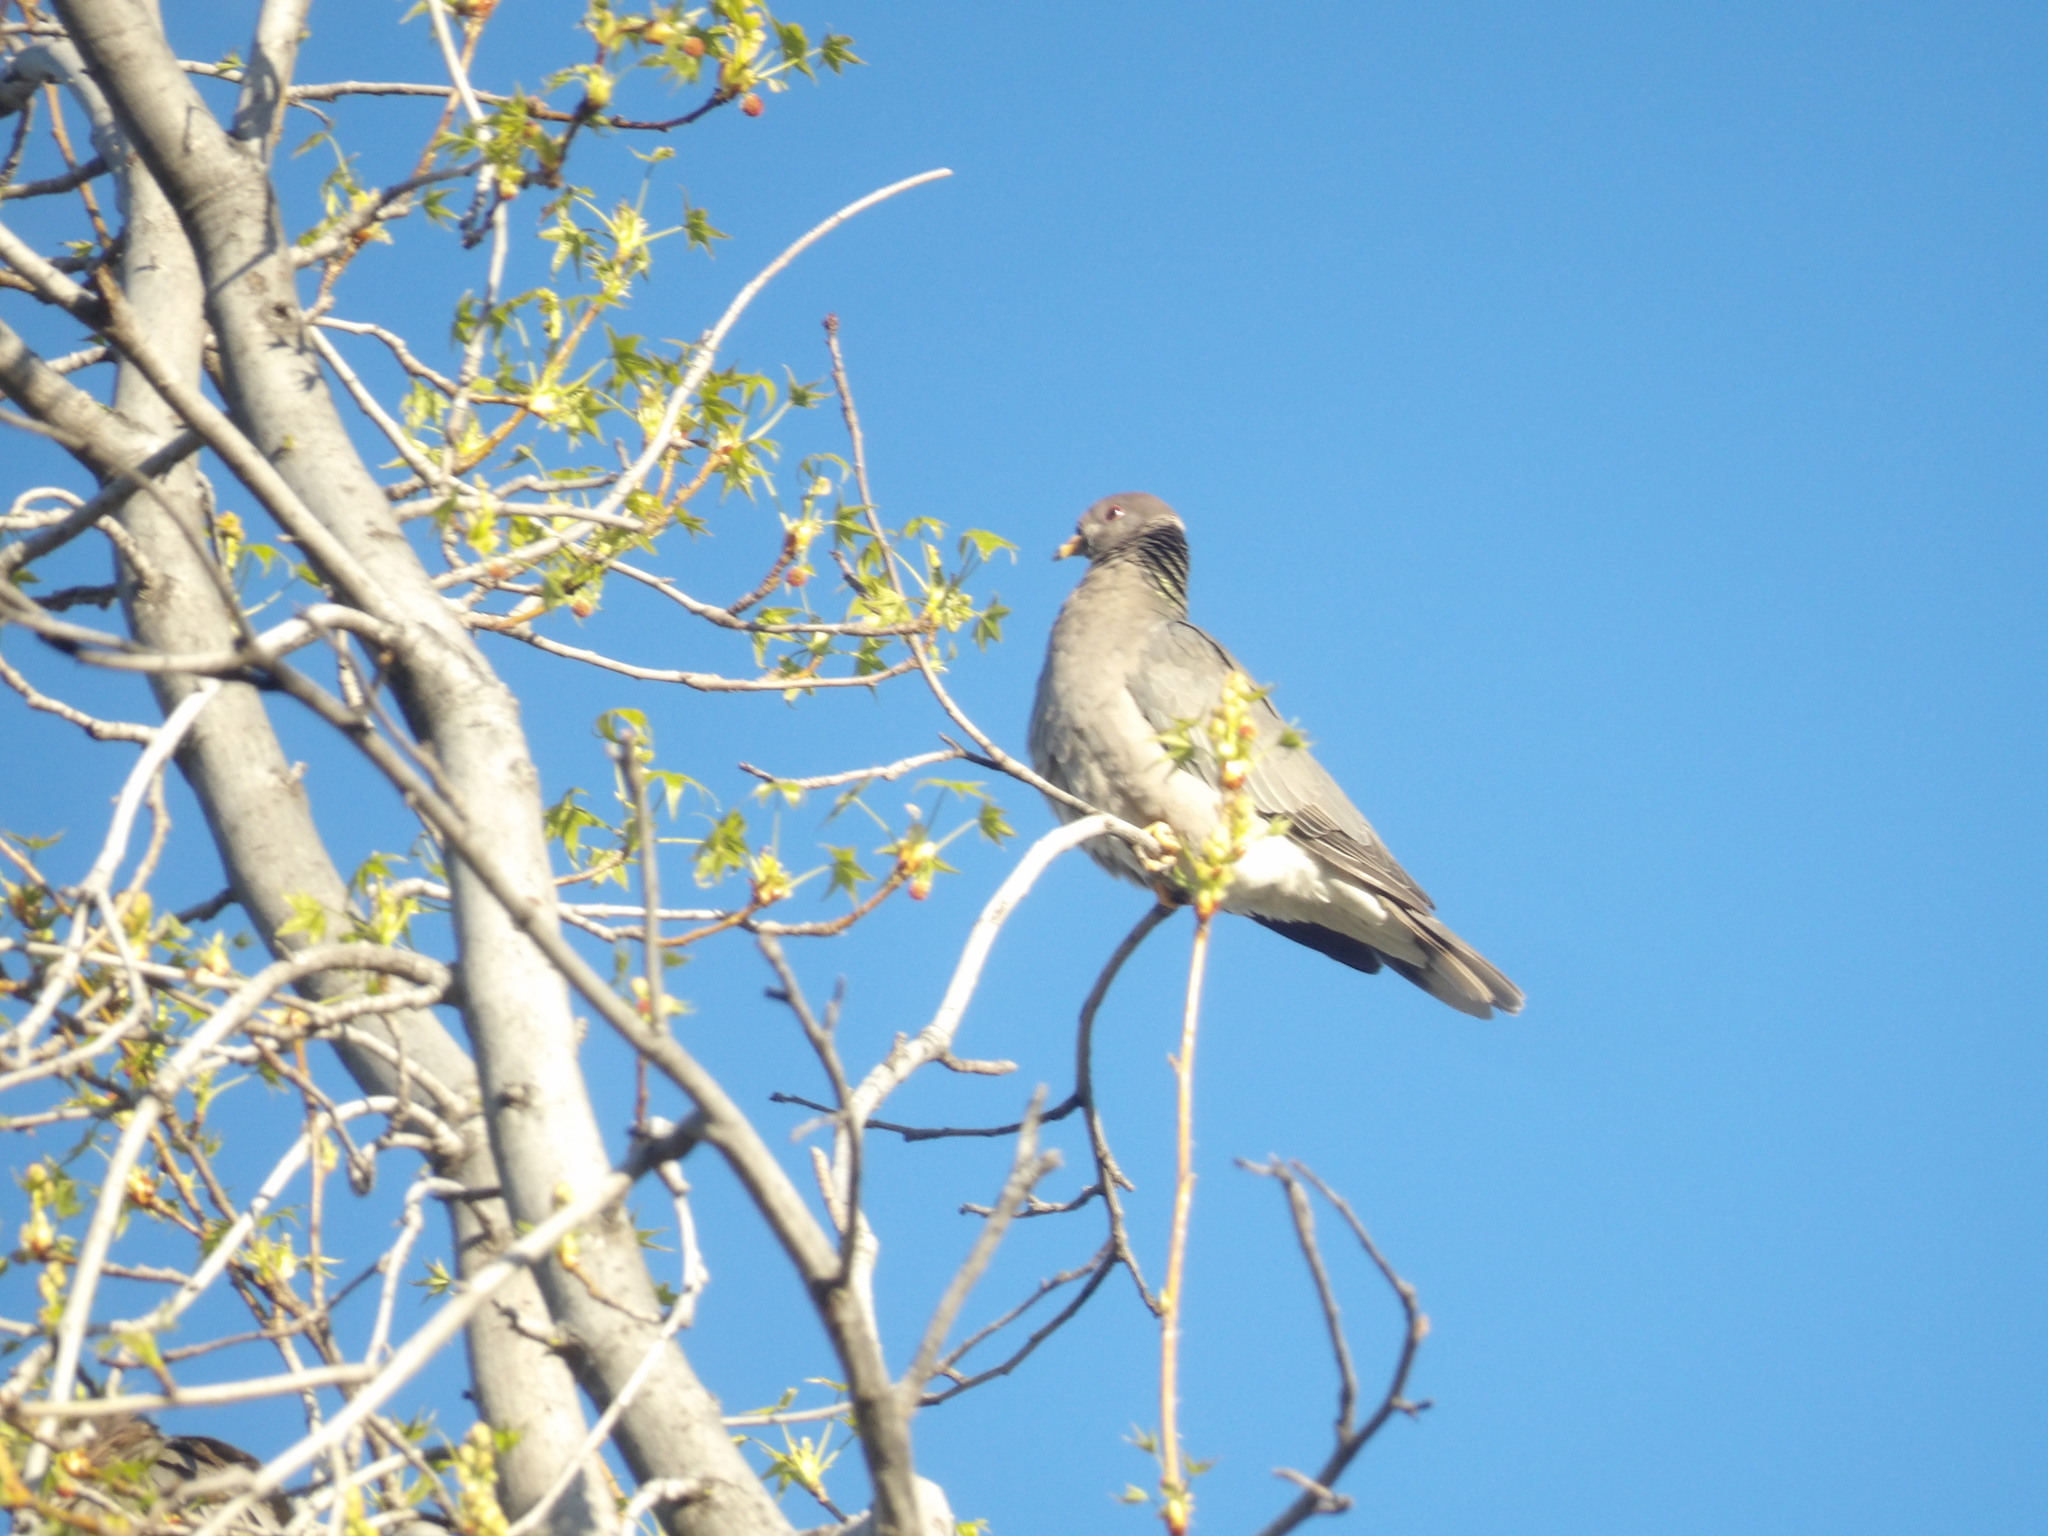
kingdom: Animalia
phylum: Chordata
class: Aves
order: Columbiformes
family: Columbidae
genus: Patagioenas
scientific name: Patagioenas fasciata
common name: Band-tailed pigeon
